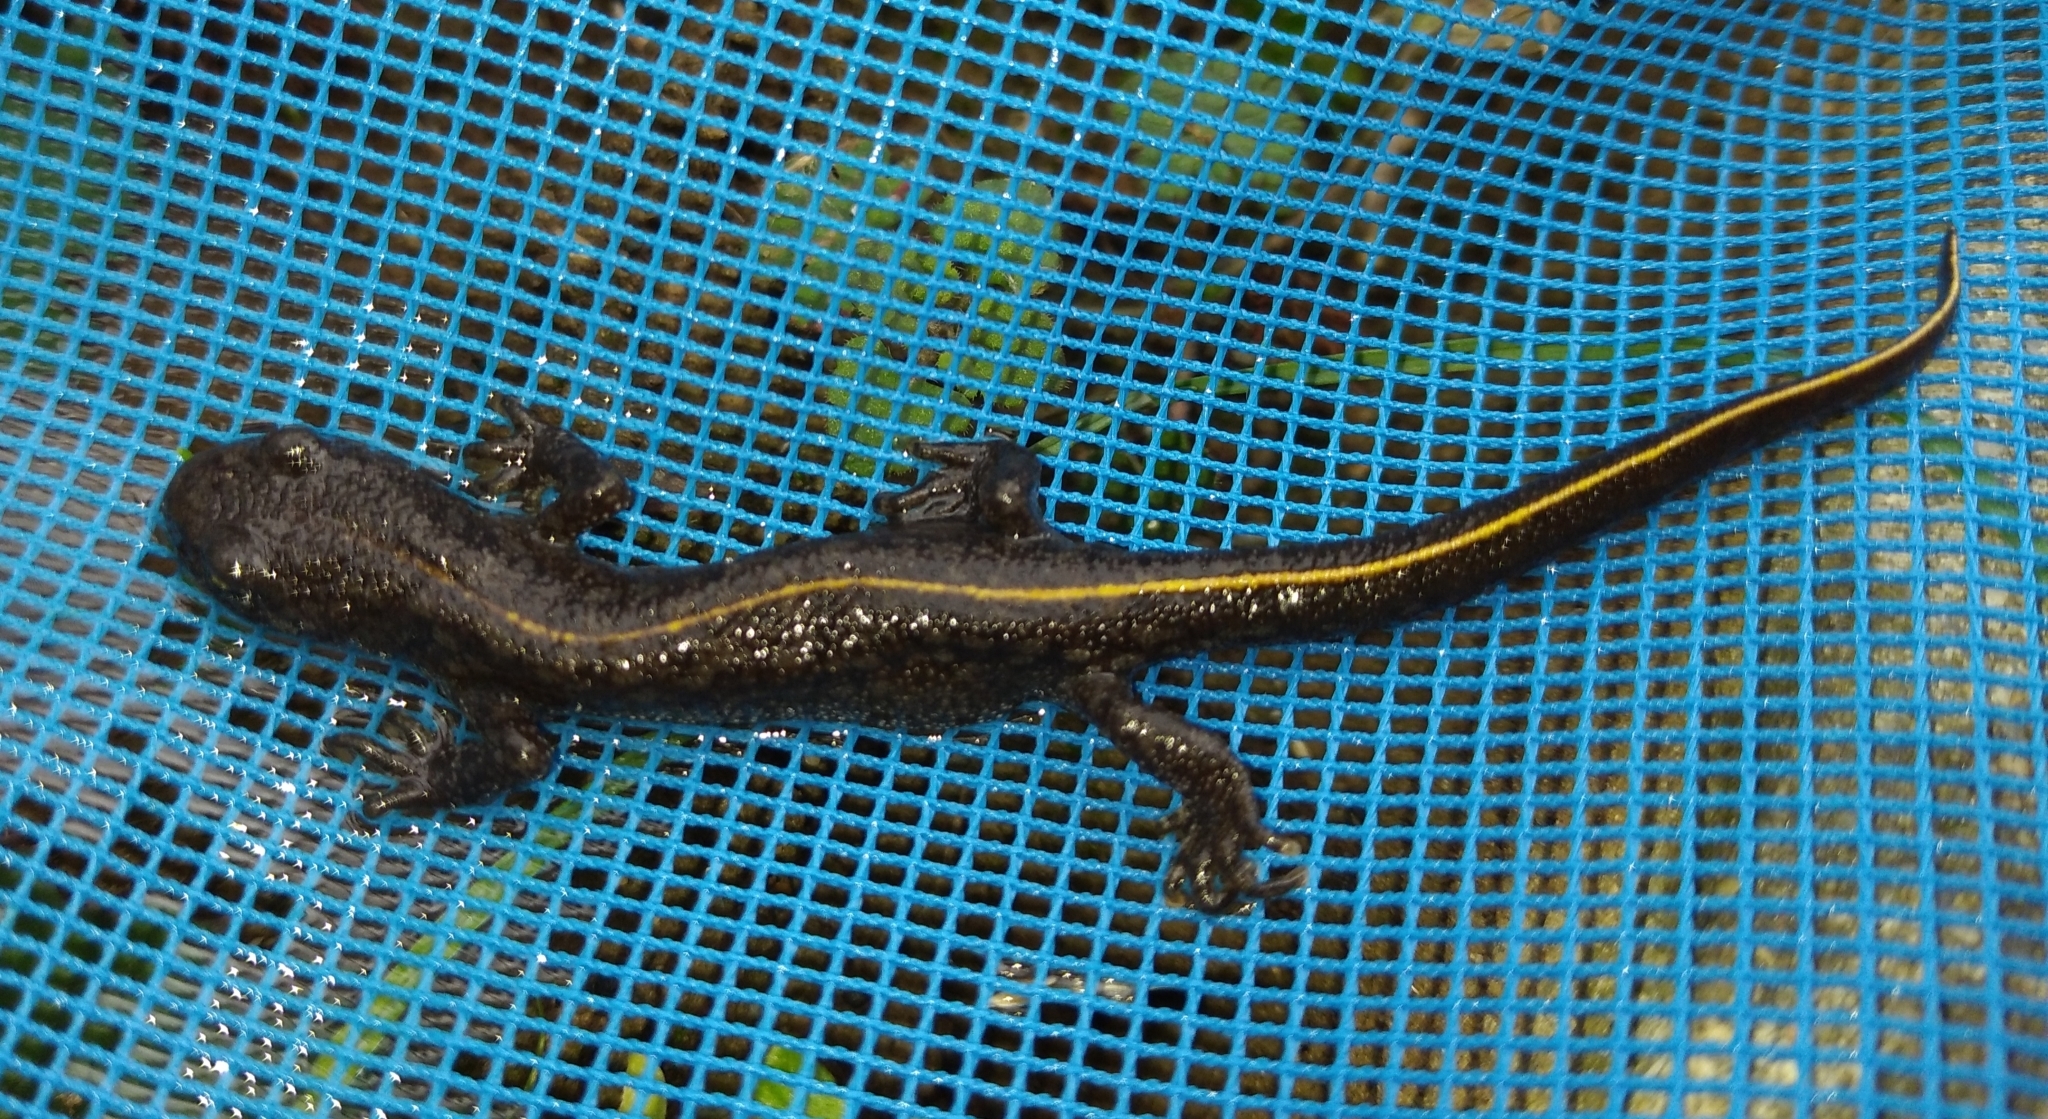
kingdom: Animalia
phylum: Chordata
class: Amphibia
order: Caudata
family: Salamandridae
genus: Triturus
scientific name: Triturus ivanbureschi
